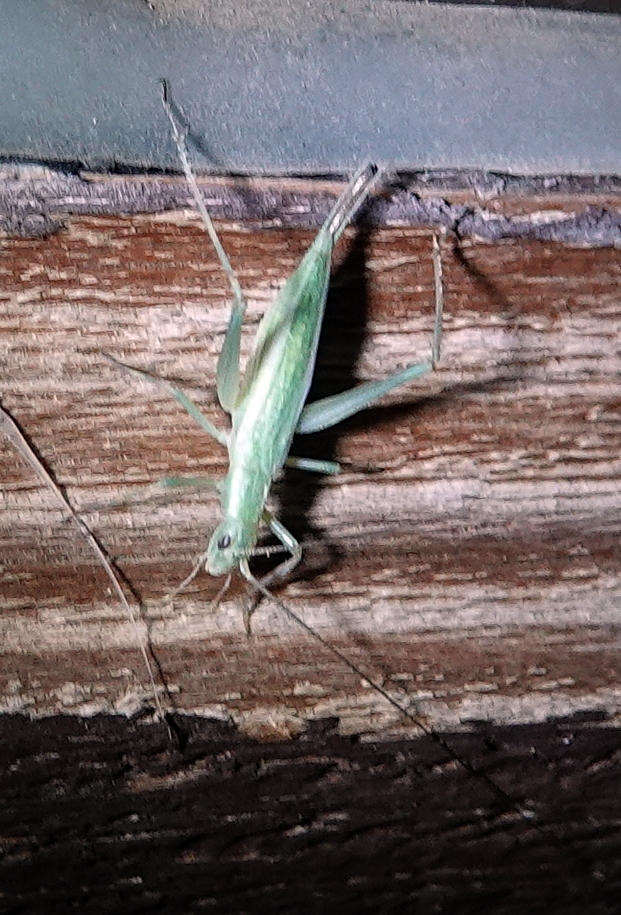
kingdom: Animalia
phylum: Arthropoda
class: Insecta
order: Orthoptera
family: Gryllidae
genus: Oecanthus
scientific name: Oecanthus
